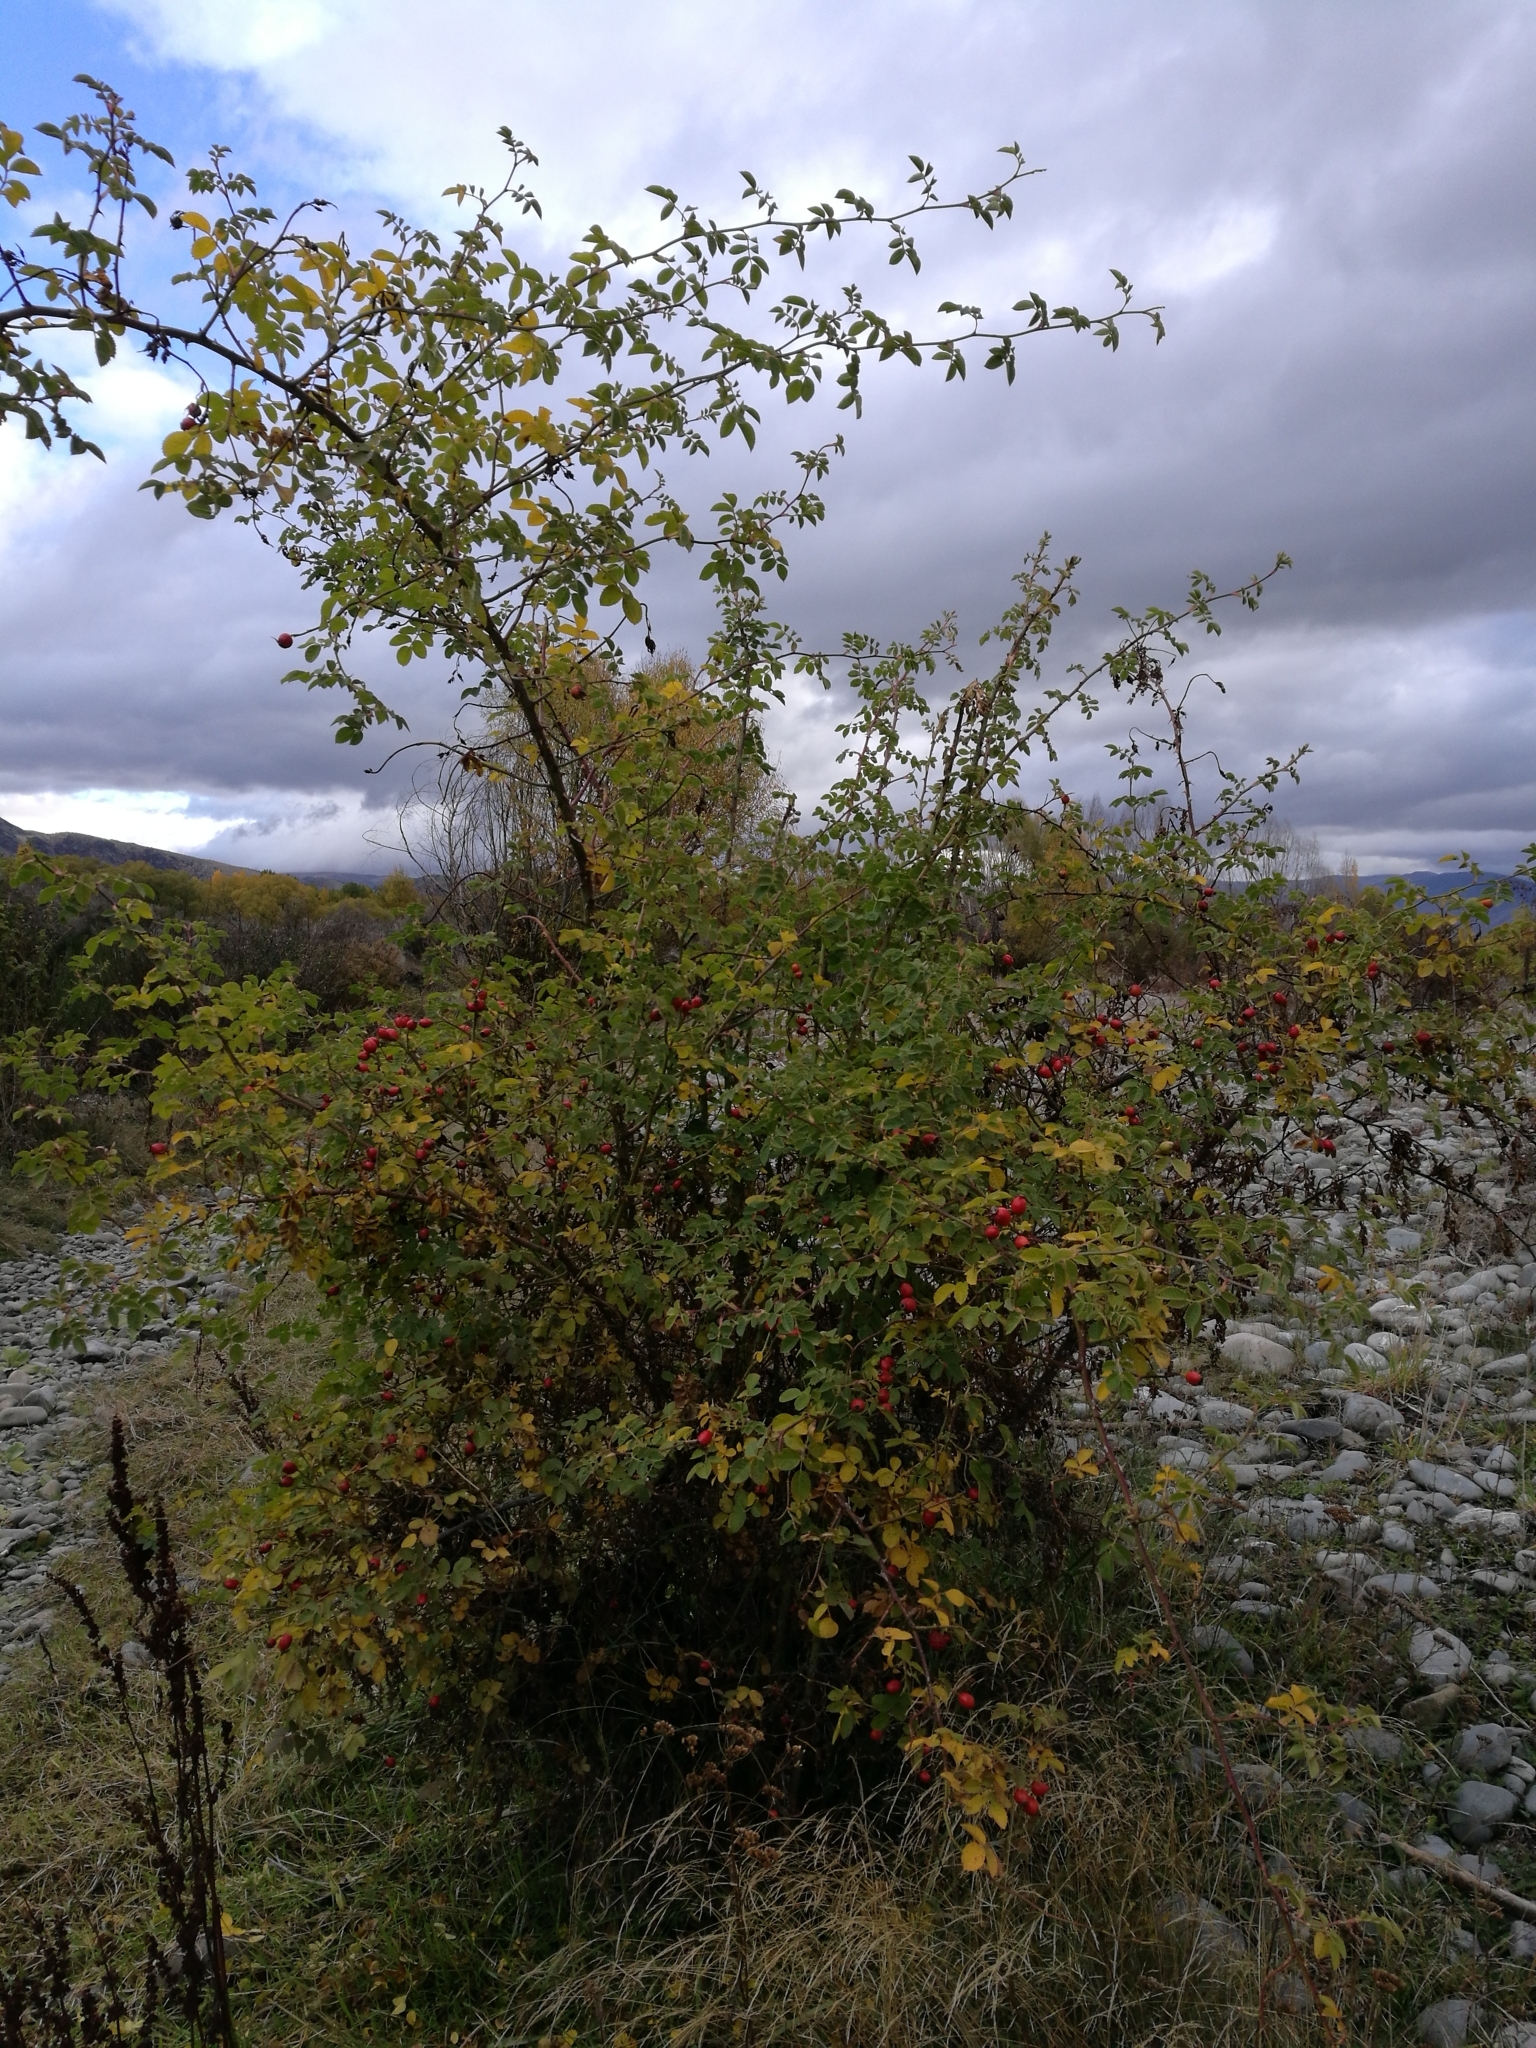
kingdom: Plantae
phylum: Tracheophyta
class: Magnoliopsida
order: Rosales
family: Rosaceae
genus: Rosa
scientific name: Rosa rubiginosa
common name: Sweet-briar
